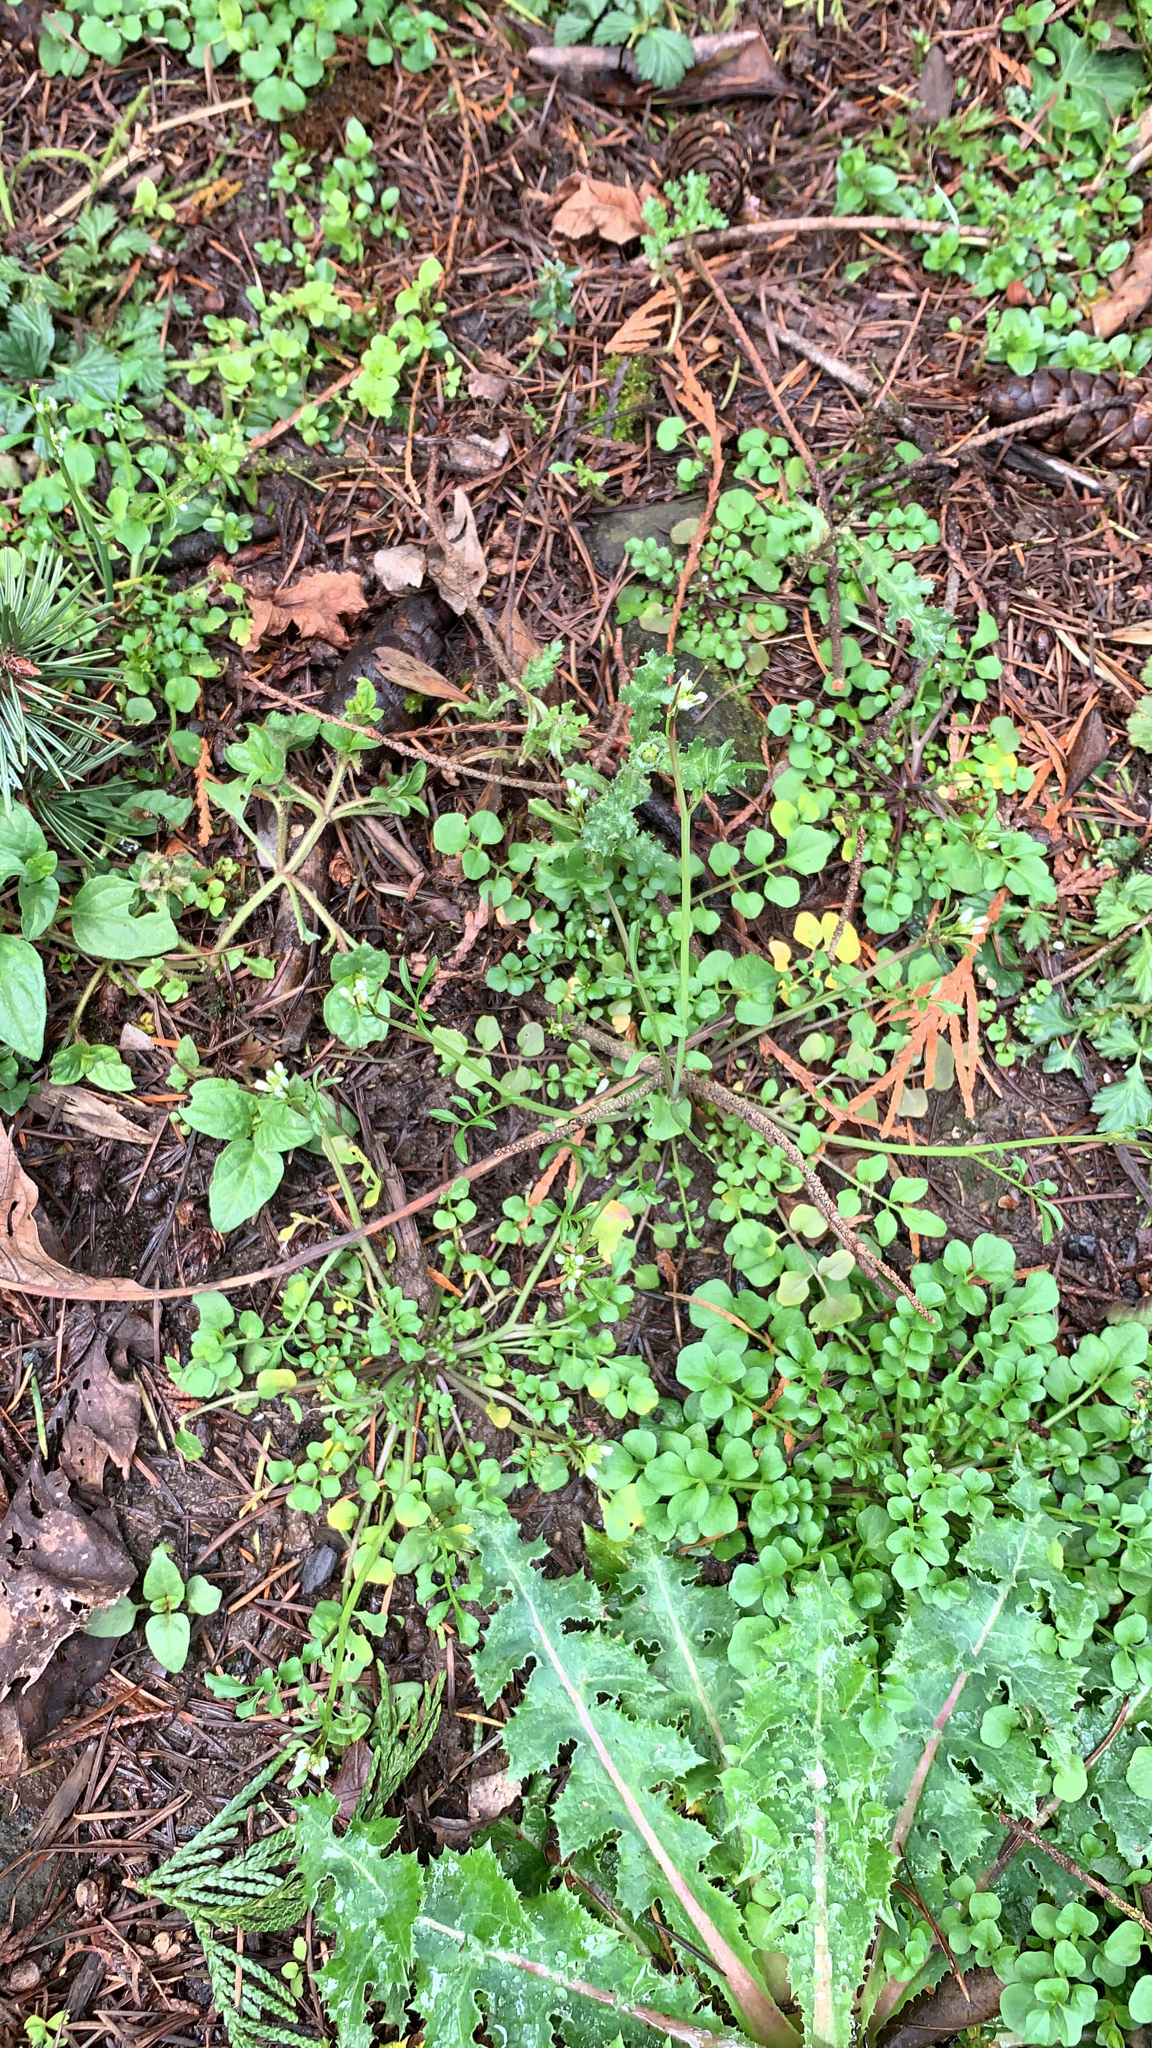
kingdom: Plantae
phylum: Tracheophyta
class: Magnoliopsida
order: Brassicales
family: Brassicaceae
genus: Cardamine
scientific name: Cardamine hirsuta
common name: Hairy bittercress
